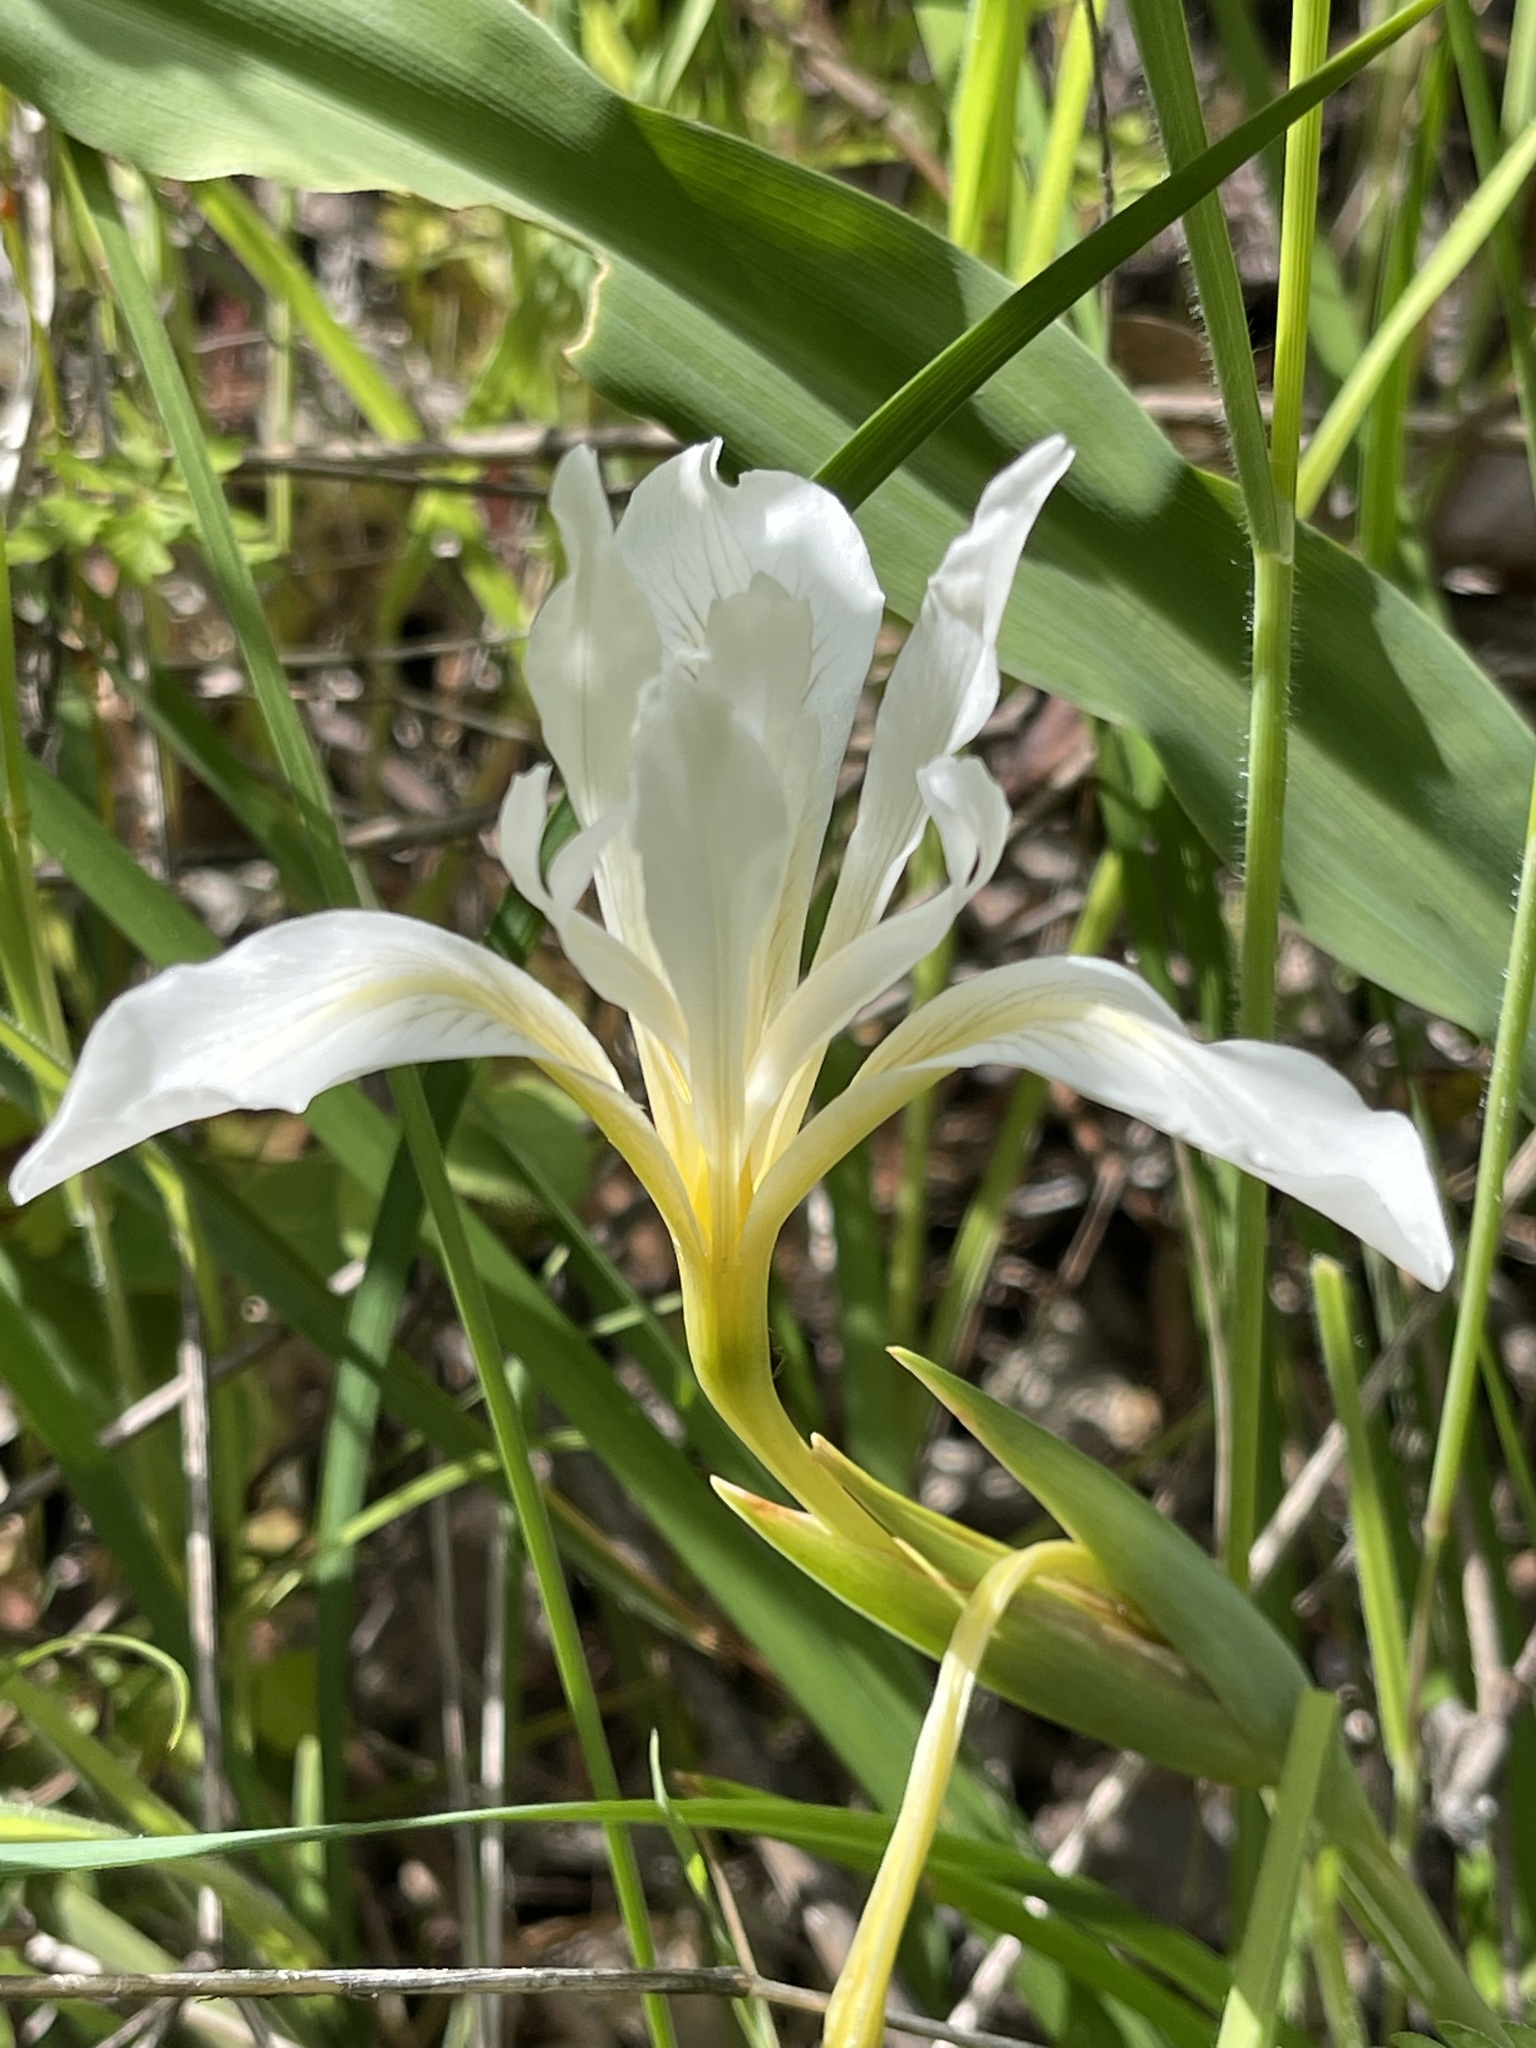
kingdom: Plantae
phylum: Tracheophyta
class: Liliopsida
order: Asparagales
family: Iridaceae
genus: Iris
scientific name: Iris fernaldii
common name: Fernald's iris
